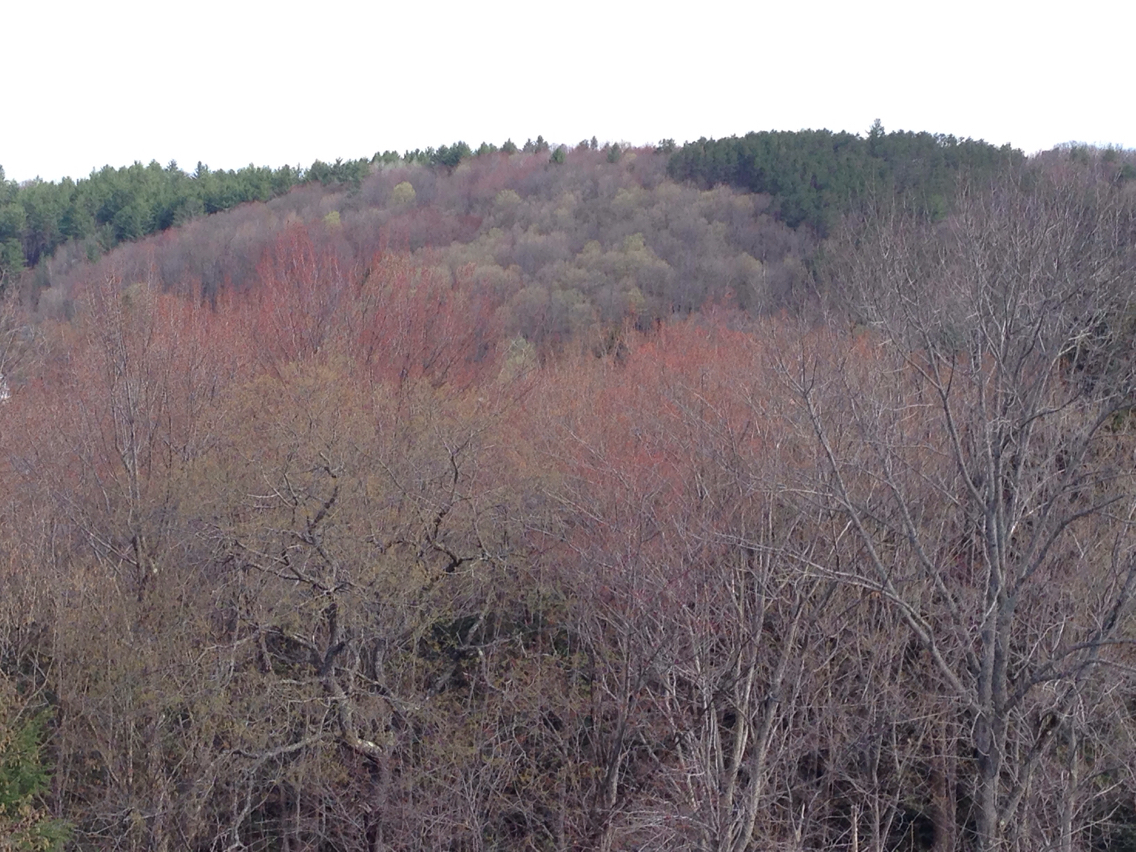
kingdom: Plantae
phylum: Tracheophyta
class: Magnoliopsida
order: Sapindales
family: Sapindaceae
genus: Acer
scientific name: Acer rubrum
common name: Red maple
